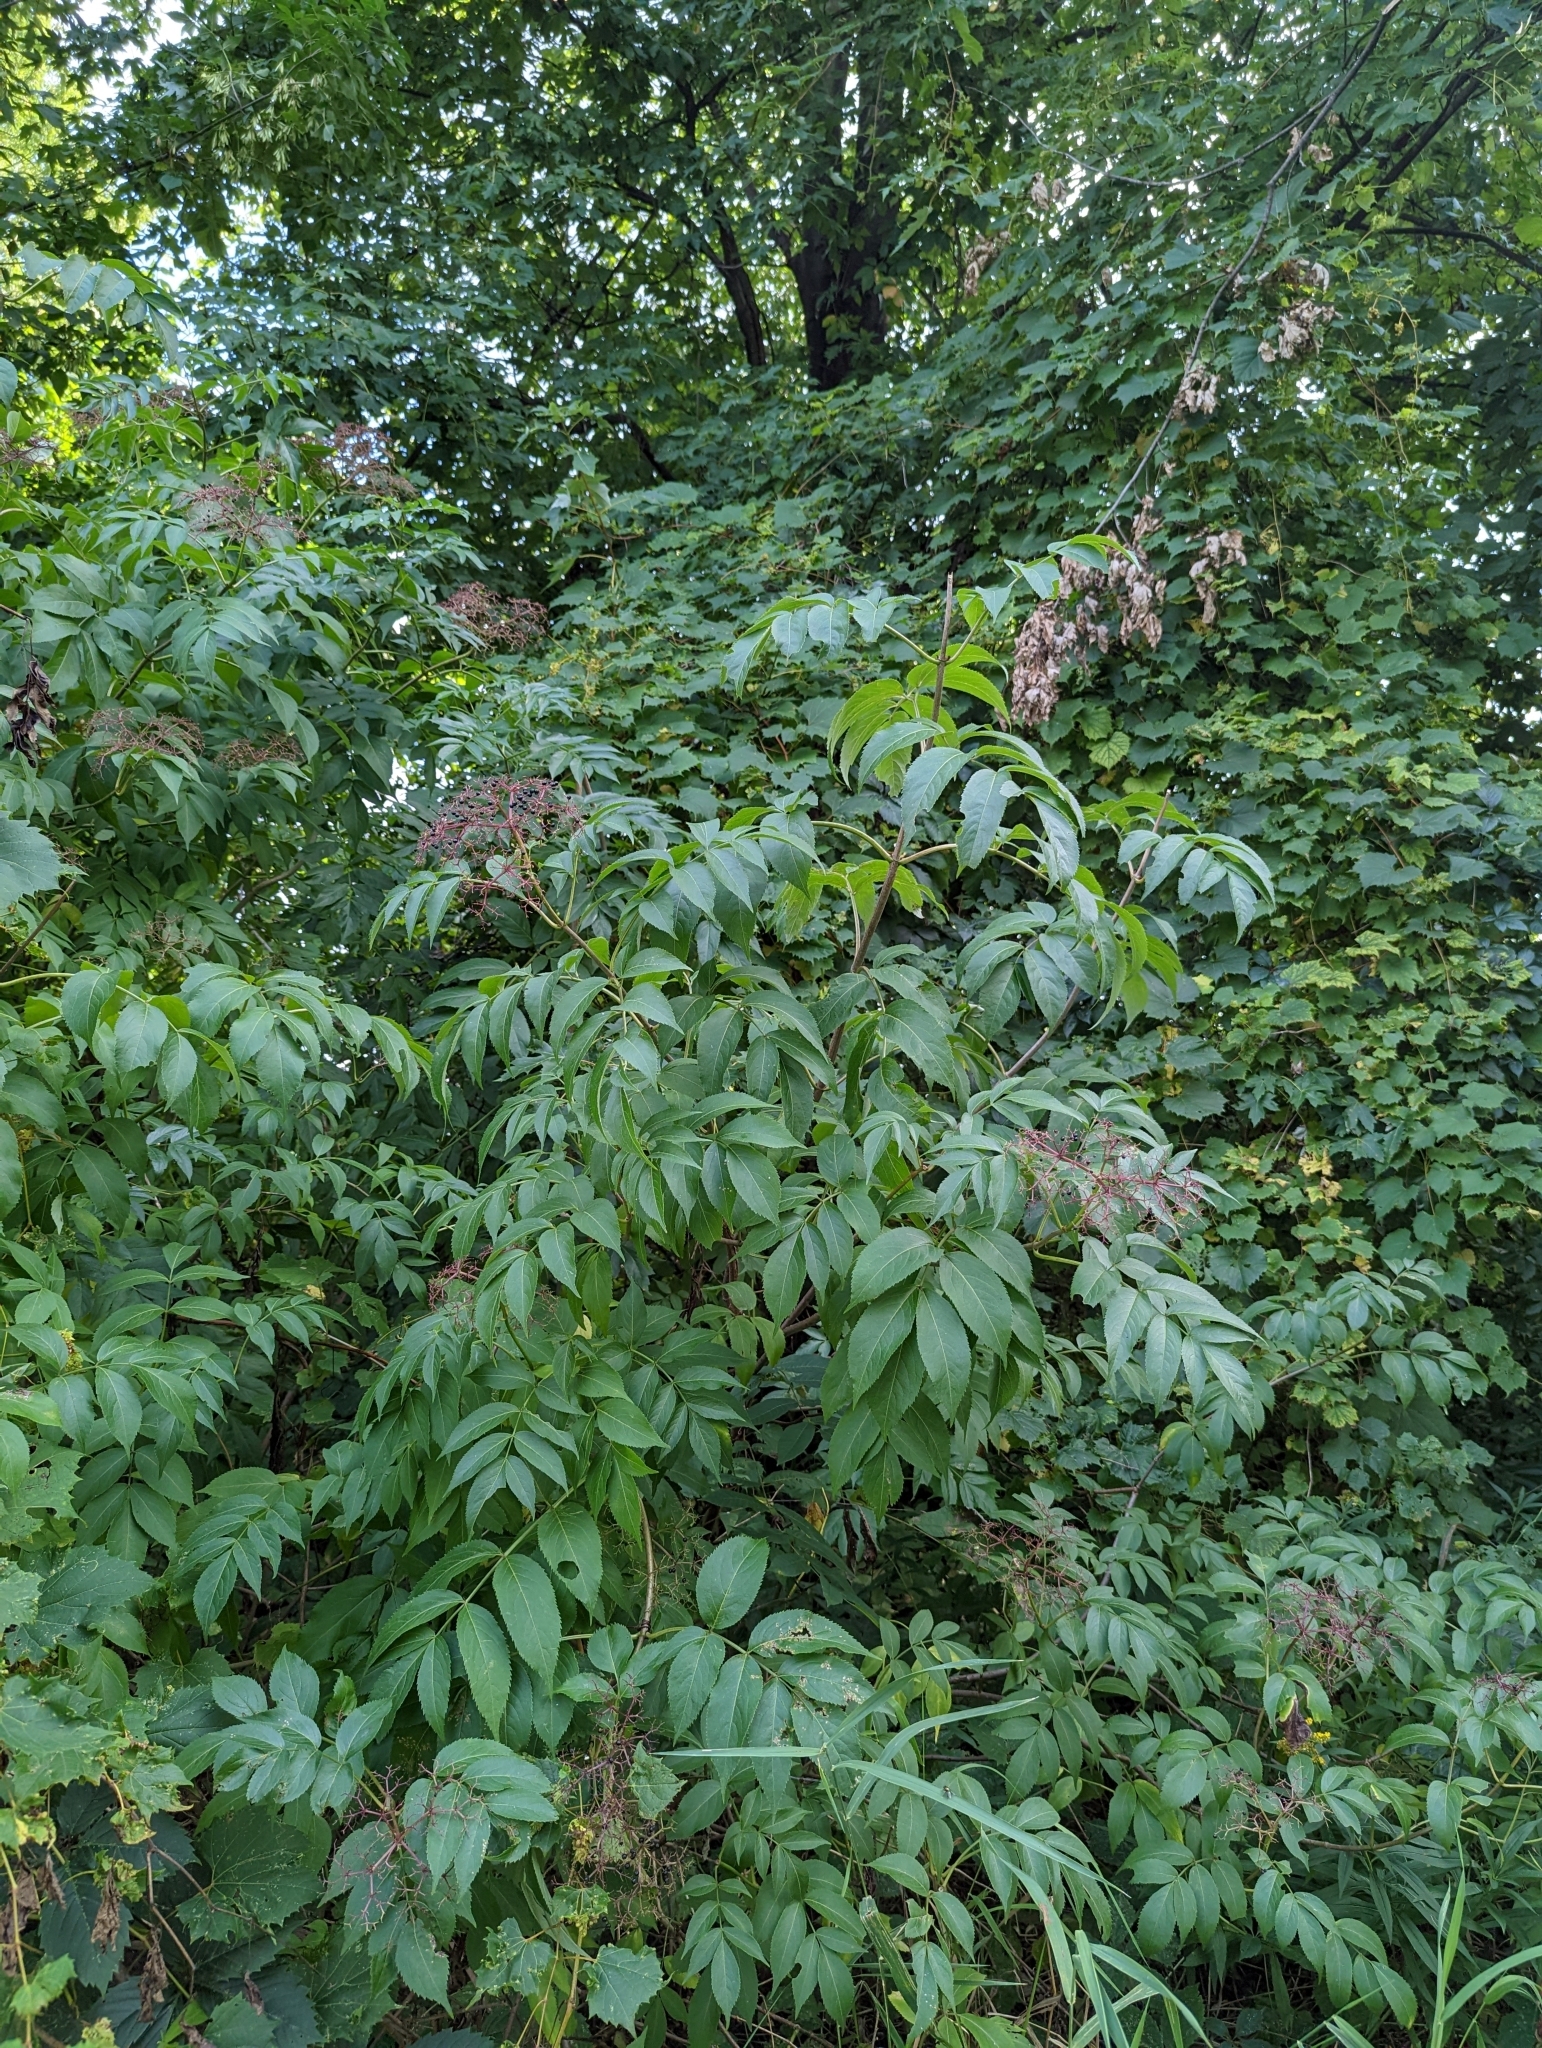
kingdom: Plantae
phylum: Tracheophyta
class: Magnoliopsida
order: Dipsacales
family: Viburnaceae
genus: Sambucus
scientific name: Sambucus canadensis
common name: American elder
